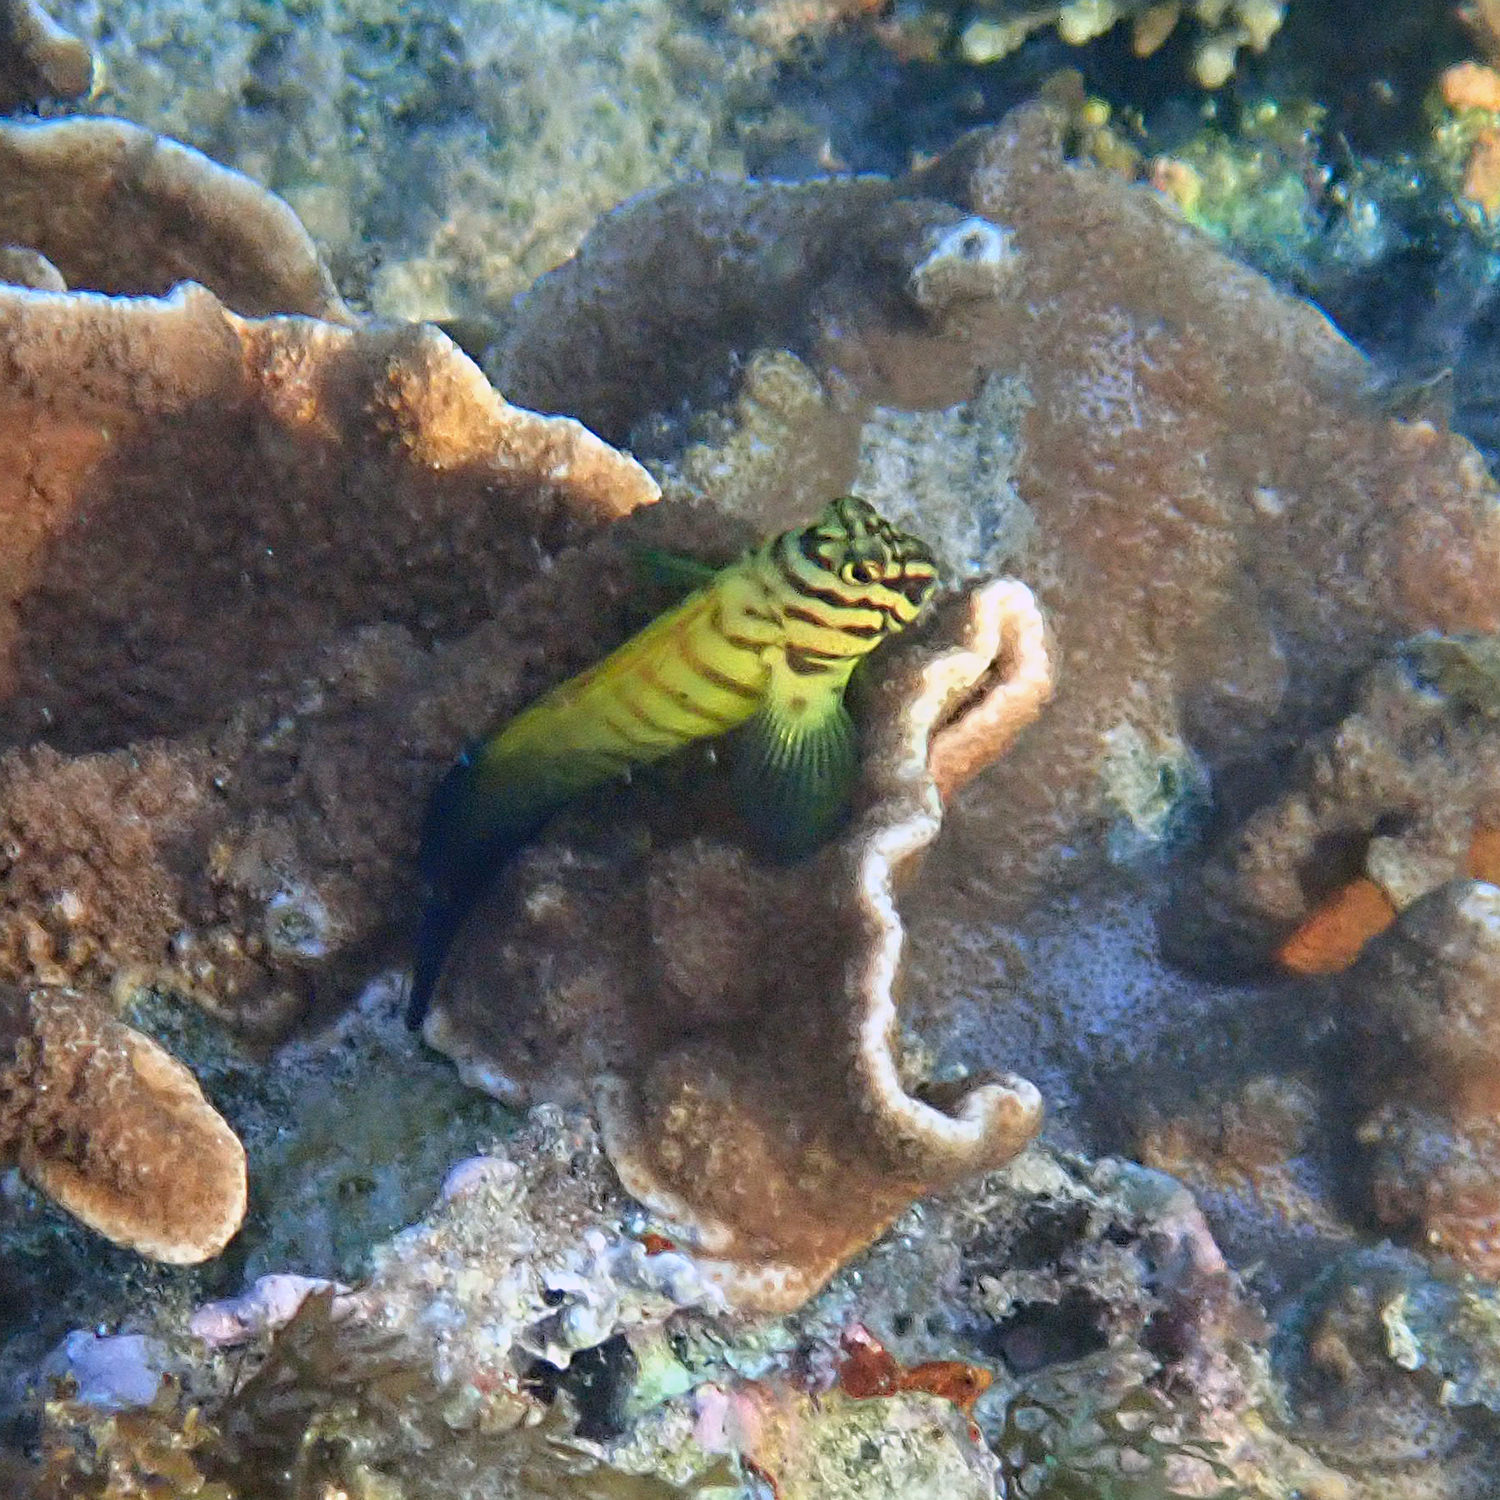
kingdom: Animalia
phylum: Chordata
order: Perciformes
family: Blenniidae
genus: Cirripectes
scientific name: Cirripectes castaneus
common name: Chestnut blenny
